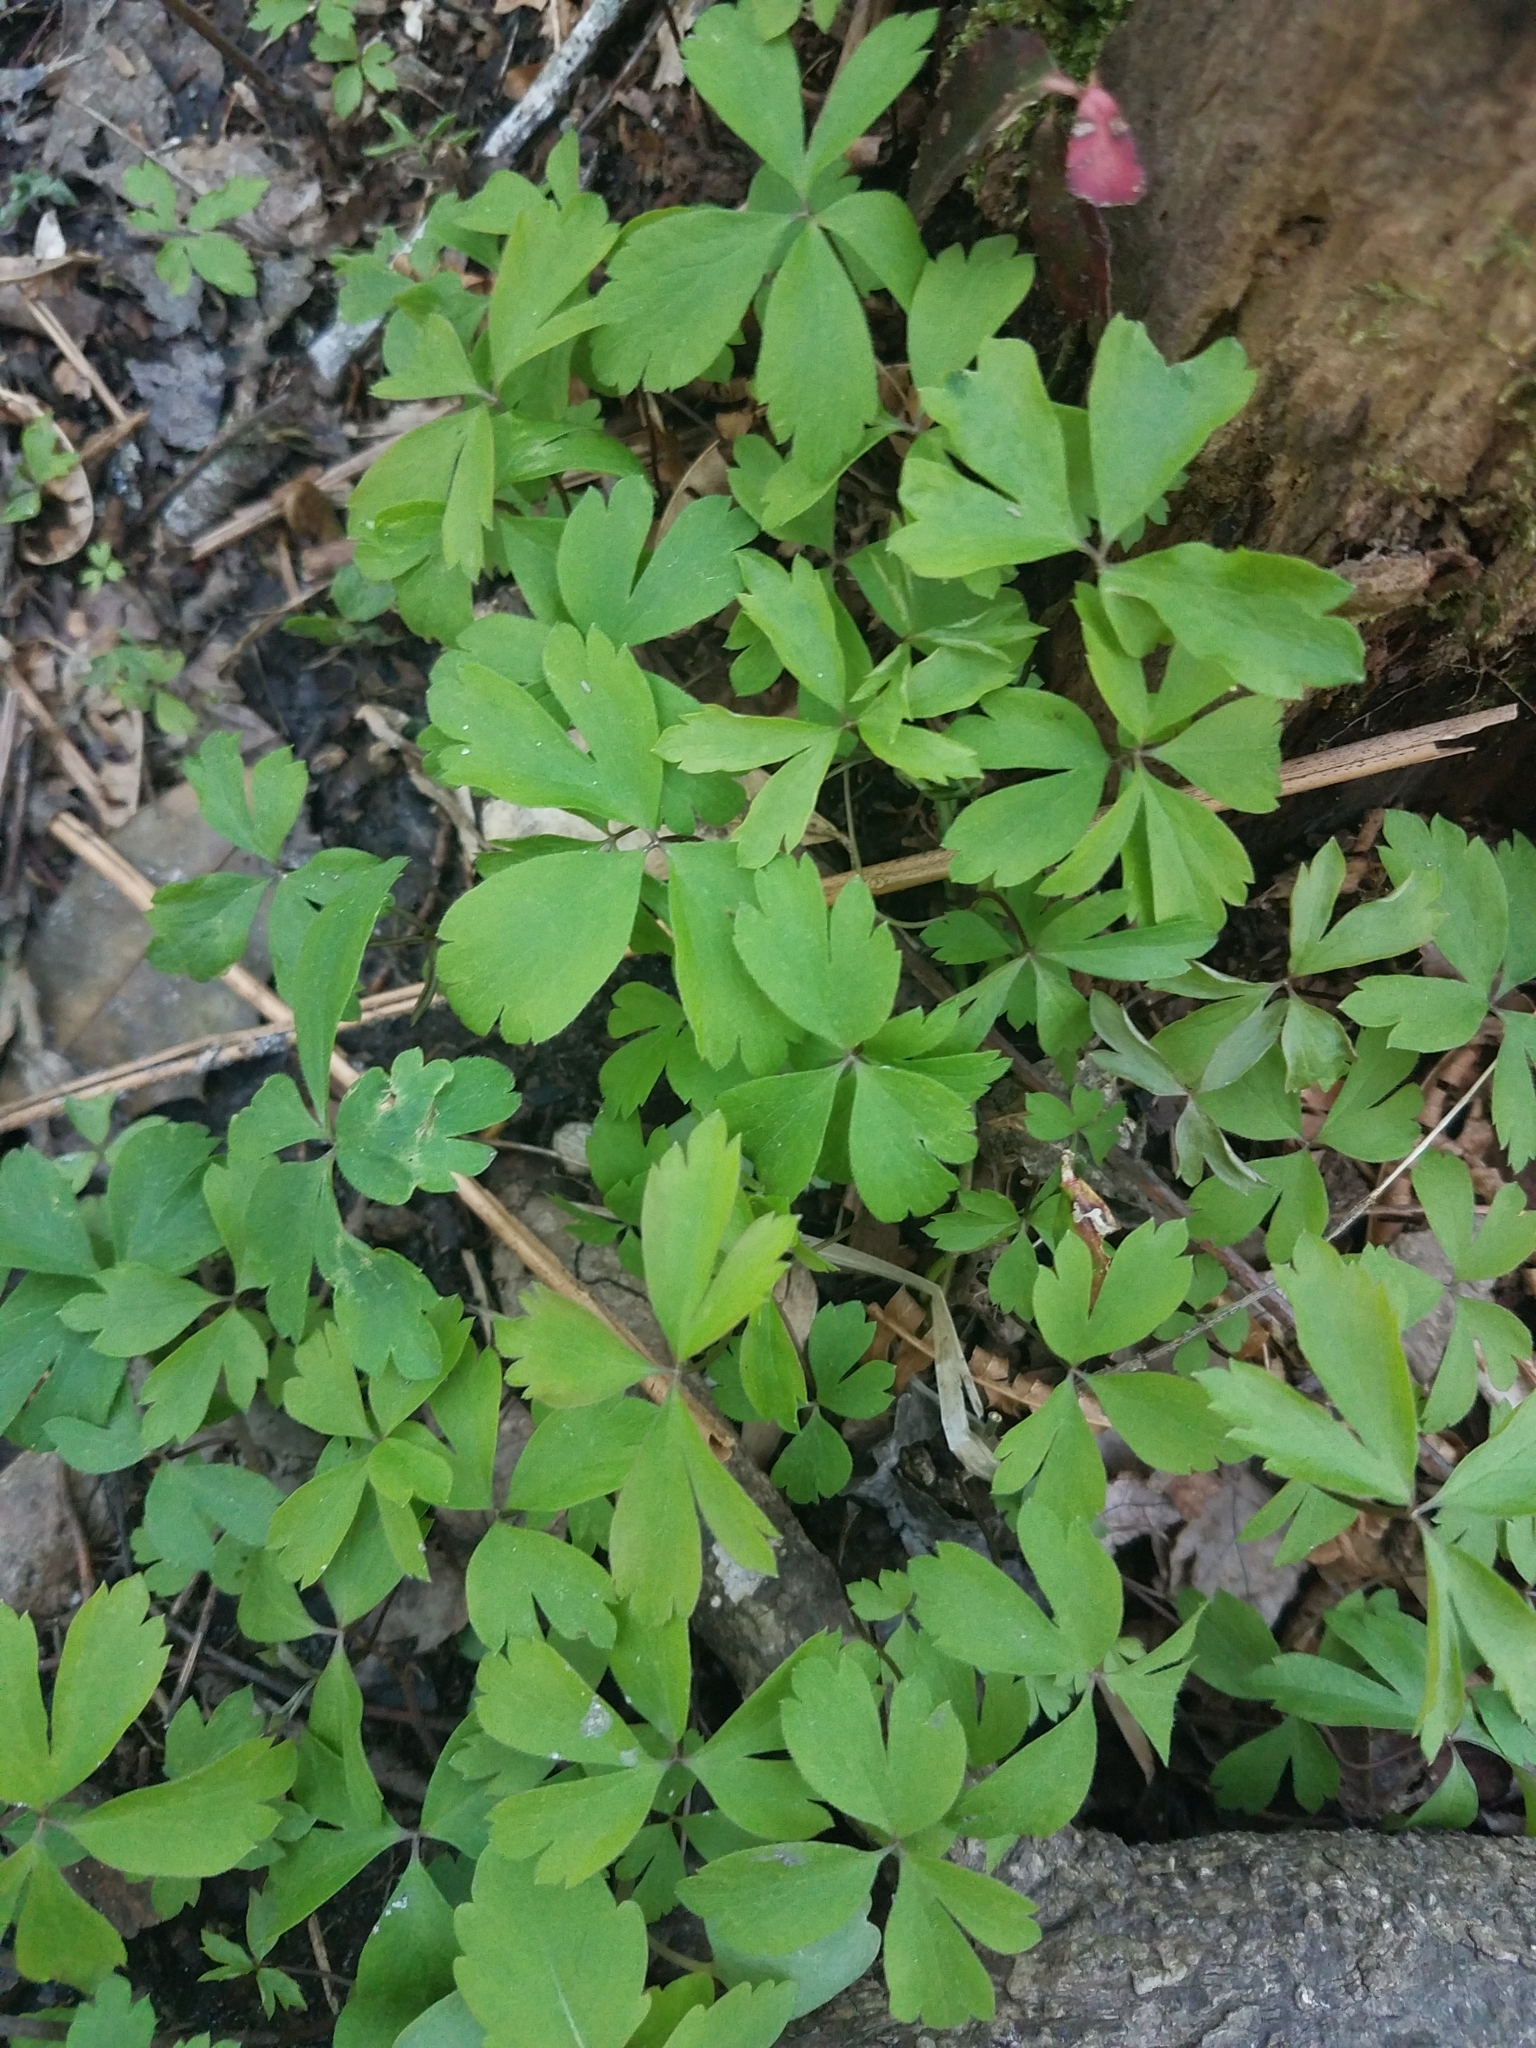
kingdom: Plantae
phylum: Tracheophyta
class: Magnoliopsida
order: Ranunculales
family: Ranunculaceae
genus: Anemone
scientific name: Anemone quinquefolia
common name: Wood anemone
